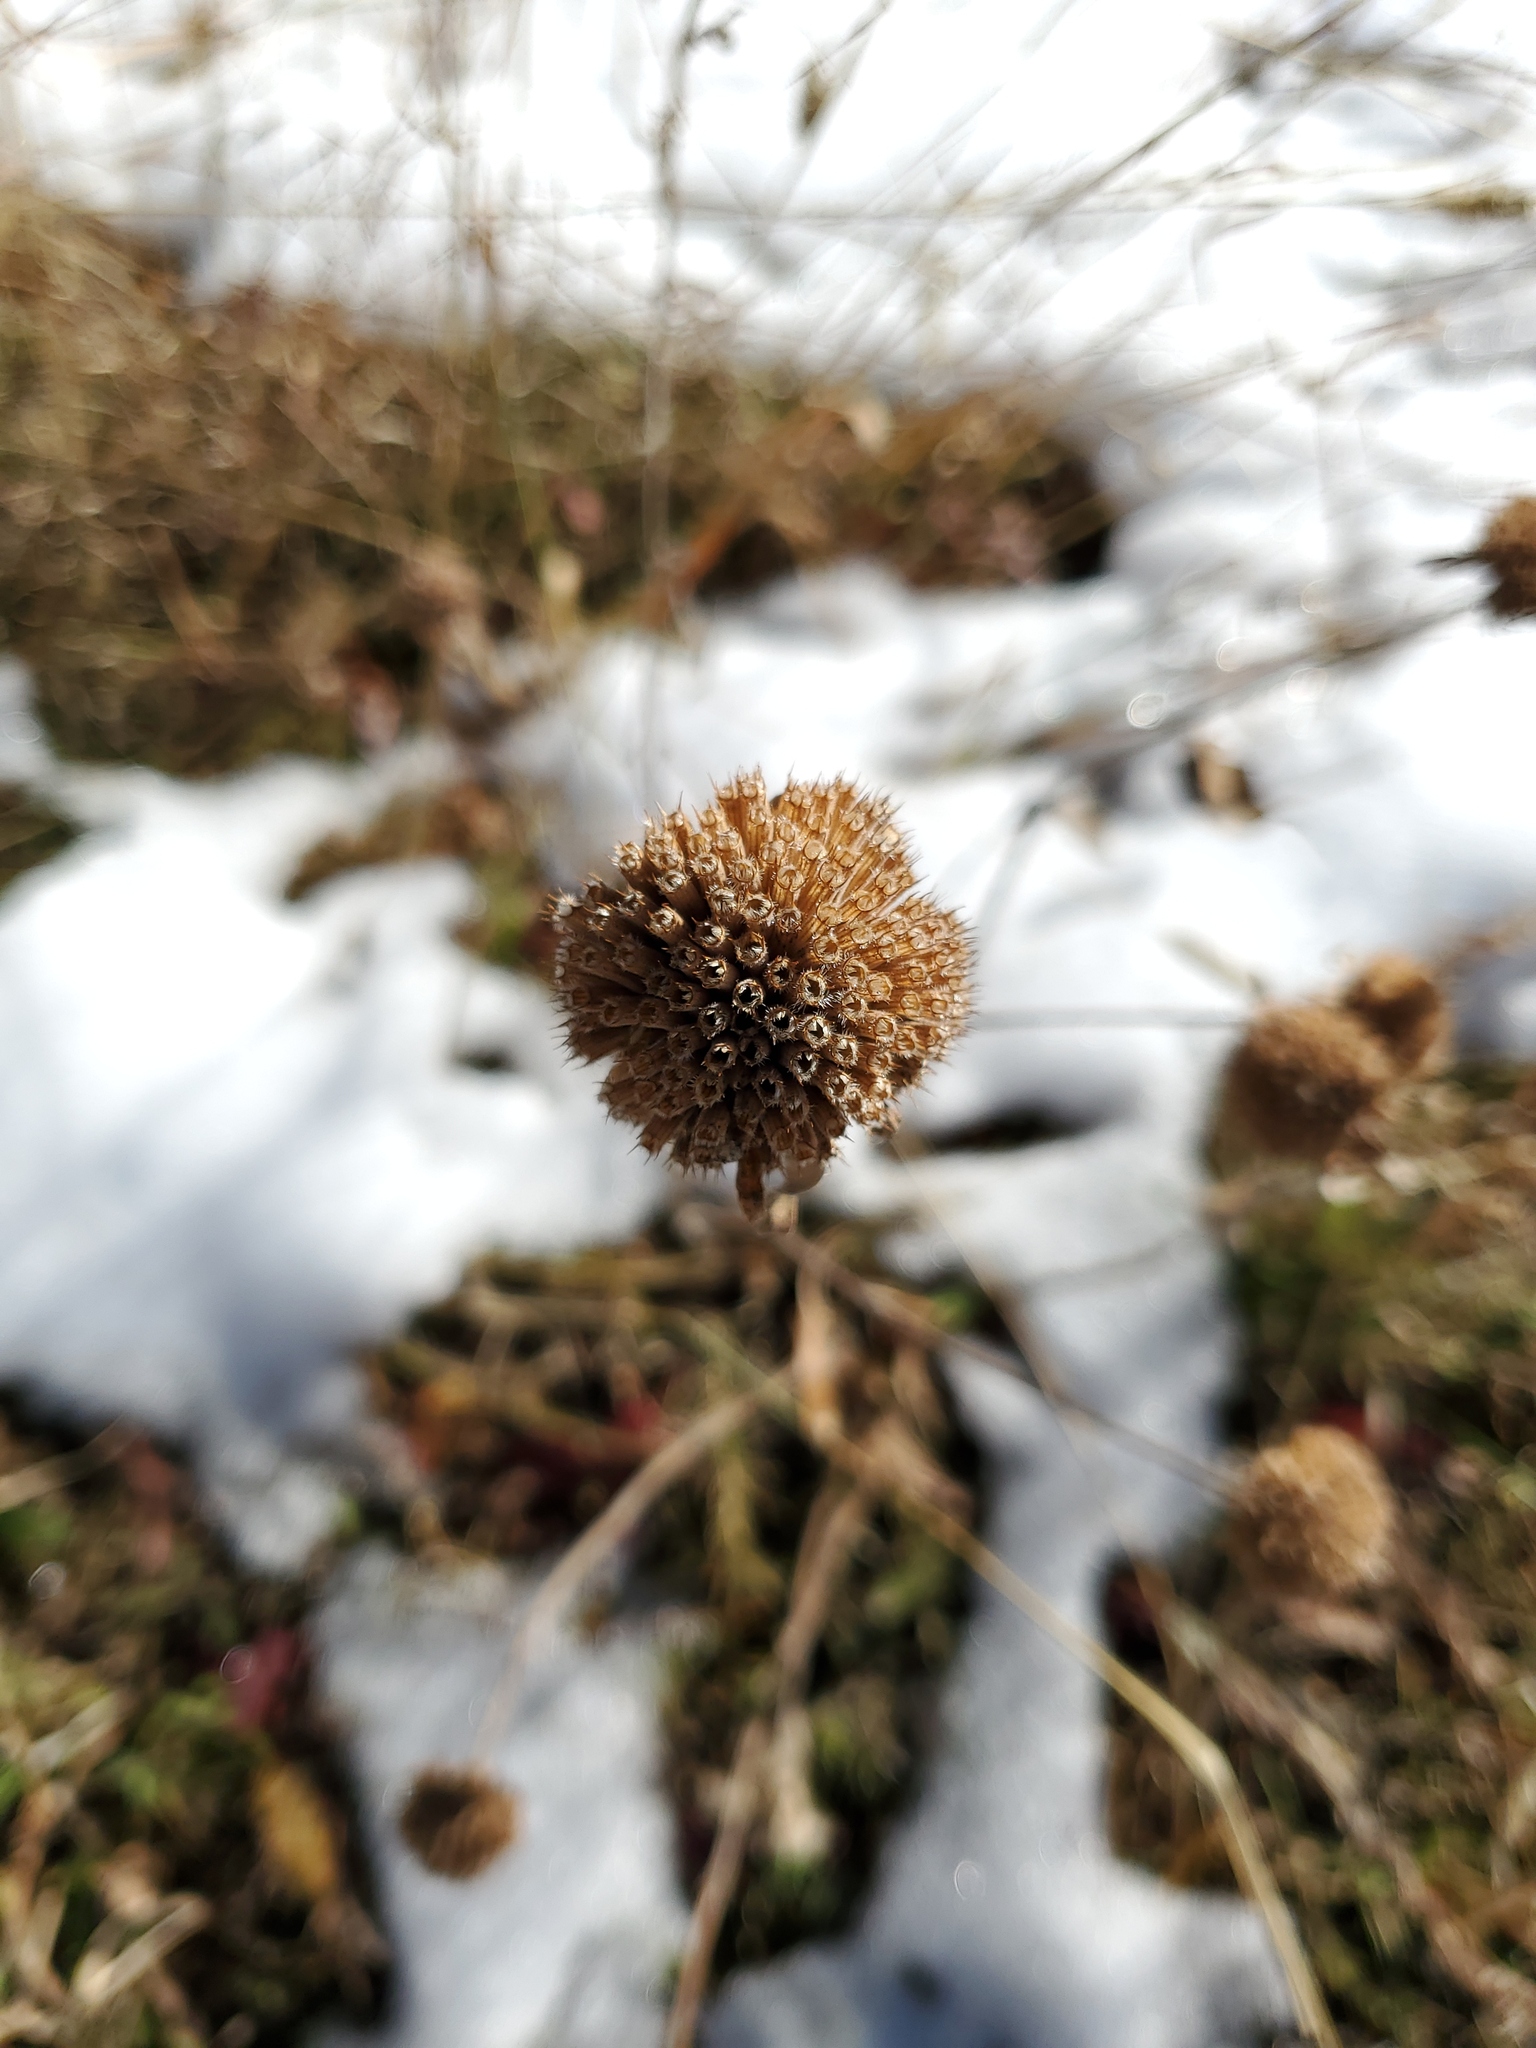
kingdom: Plantae
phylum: Tracheophyta
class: Magnoliopsida
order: Lamiales
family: Lamiaceae
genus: Monarda
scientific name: Monarda fistulosa
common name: Purple beebalm
